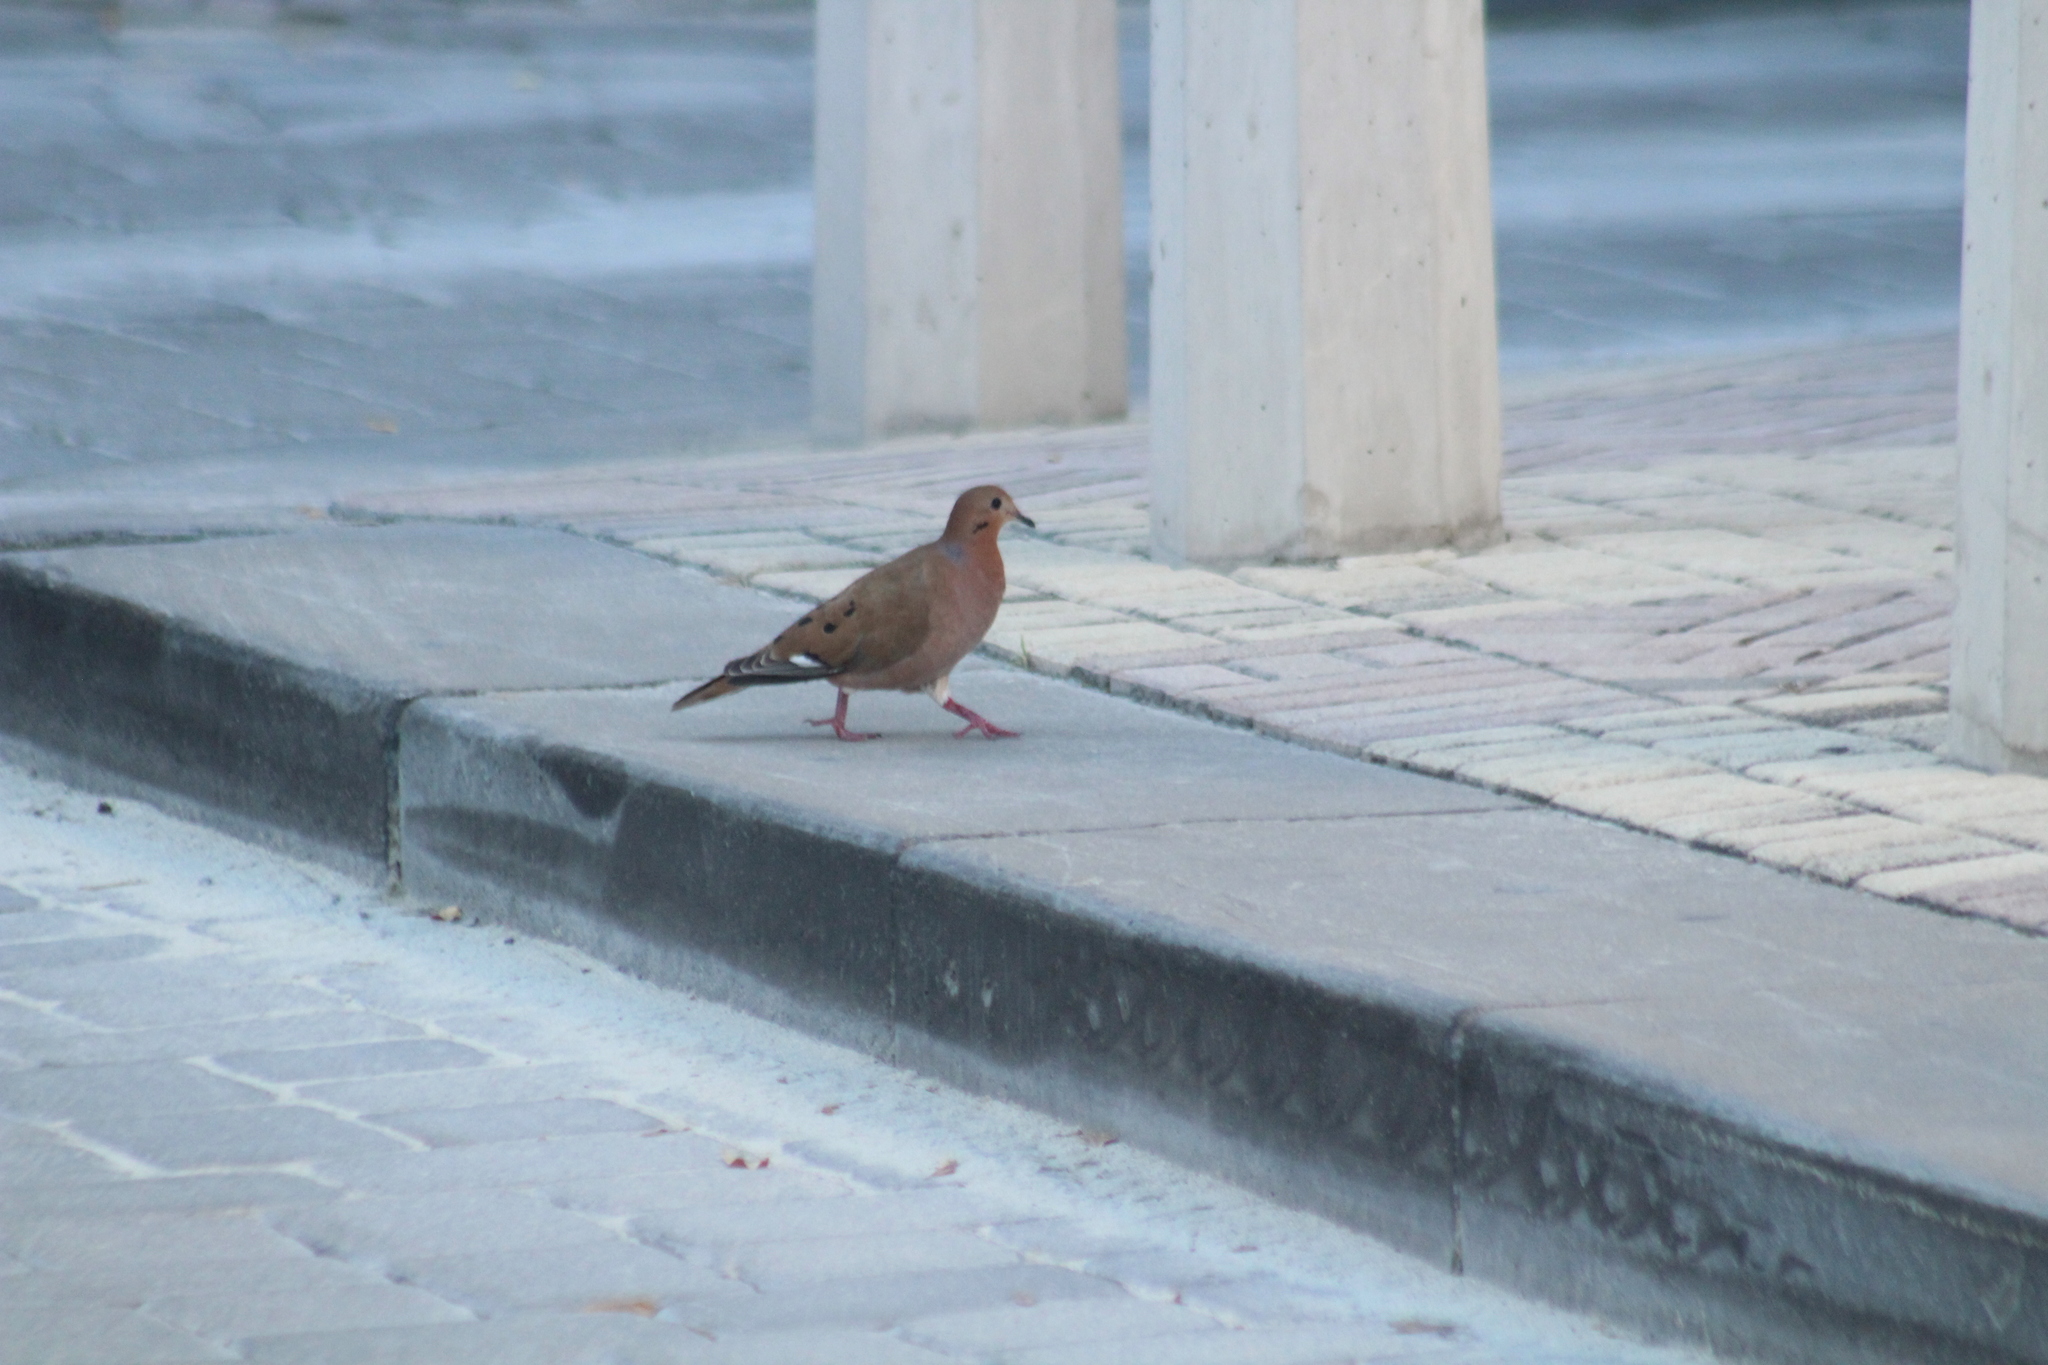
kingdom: Animalia
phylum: Chordata
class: Aves
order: Columbiformes
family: Columbidae
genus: Zenaida
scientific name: Zenaida aurita
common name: Zenaida dove
